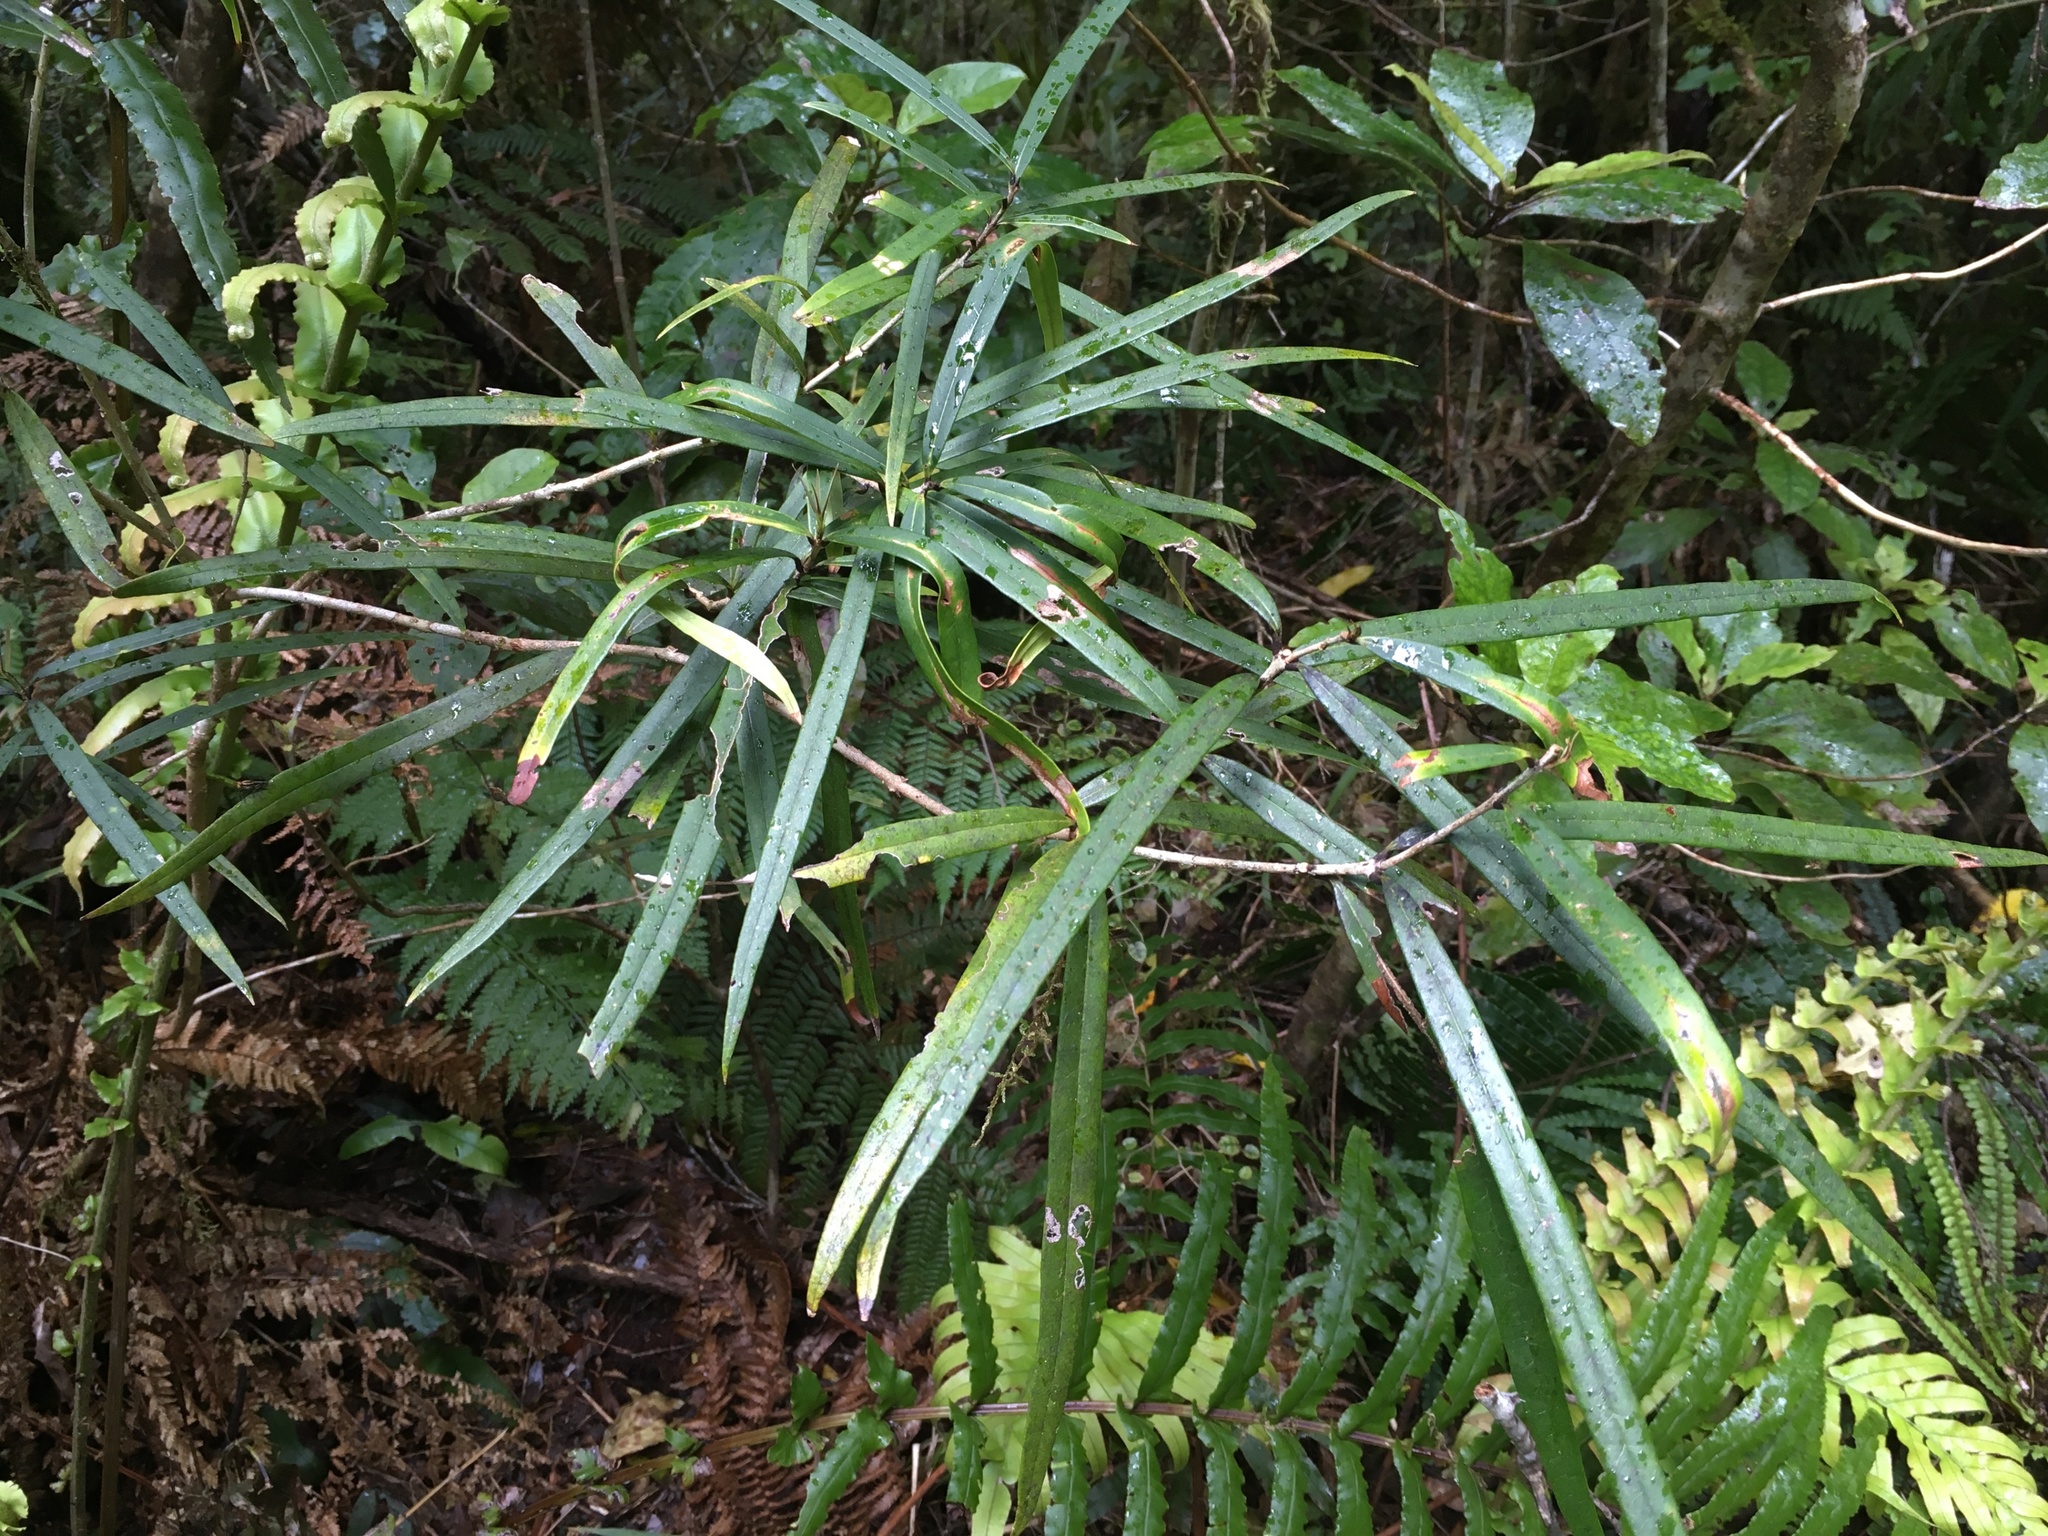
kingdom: Plantae
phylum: Tracheophyta
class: Magnoliopsida
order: Lamiales
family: Oleaceae
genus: Nestegis
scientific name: Nestegis cunninghamii
